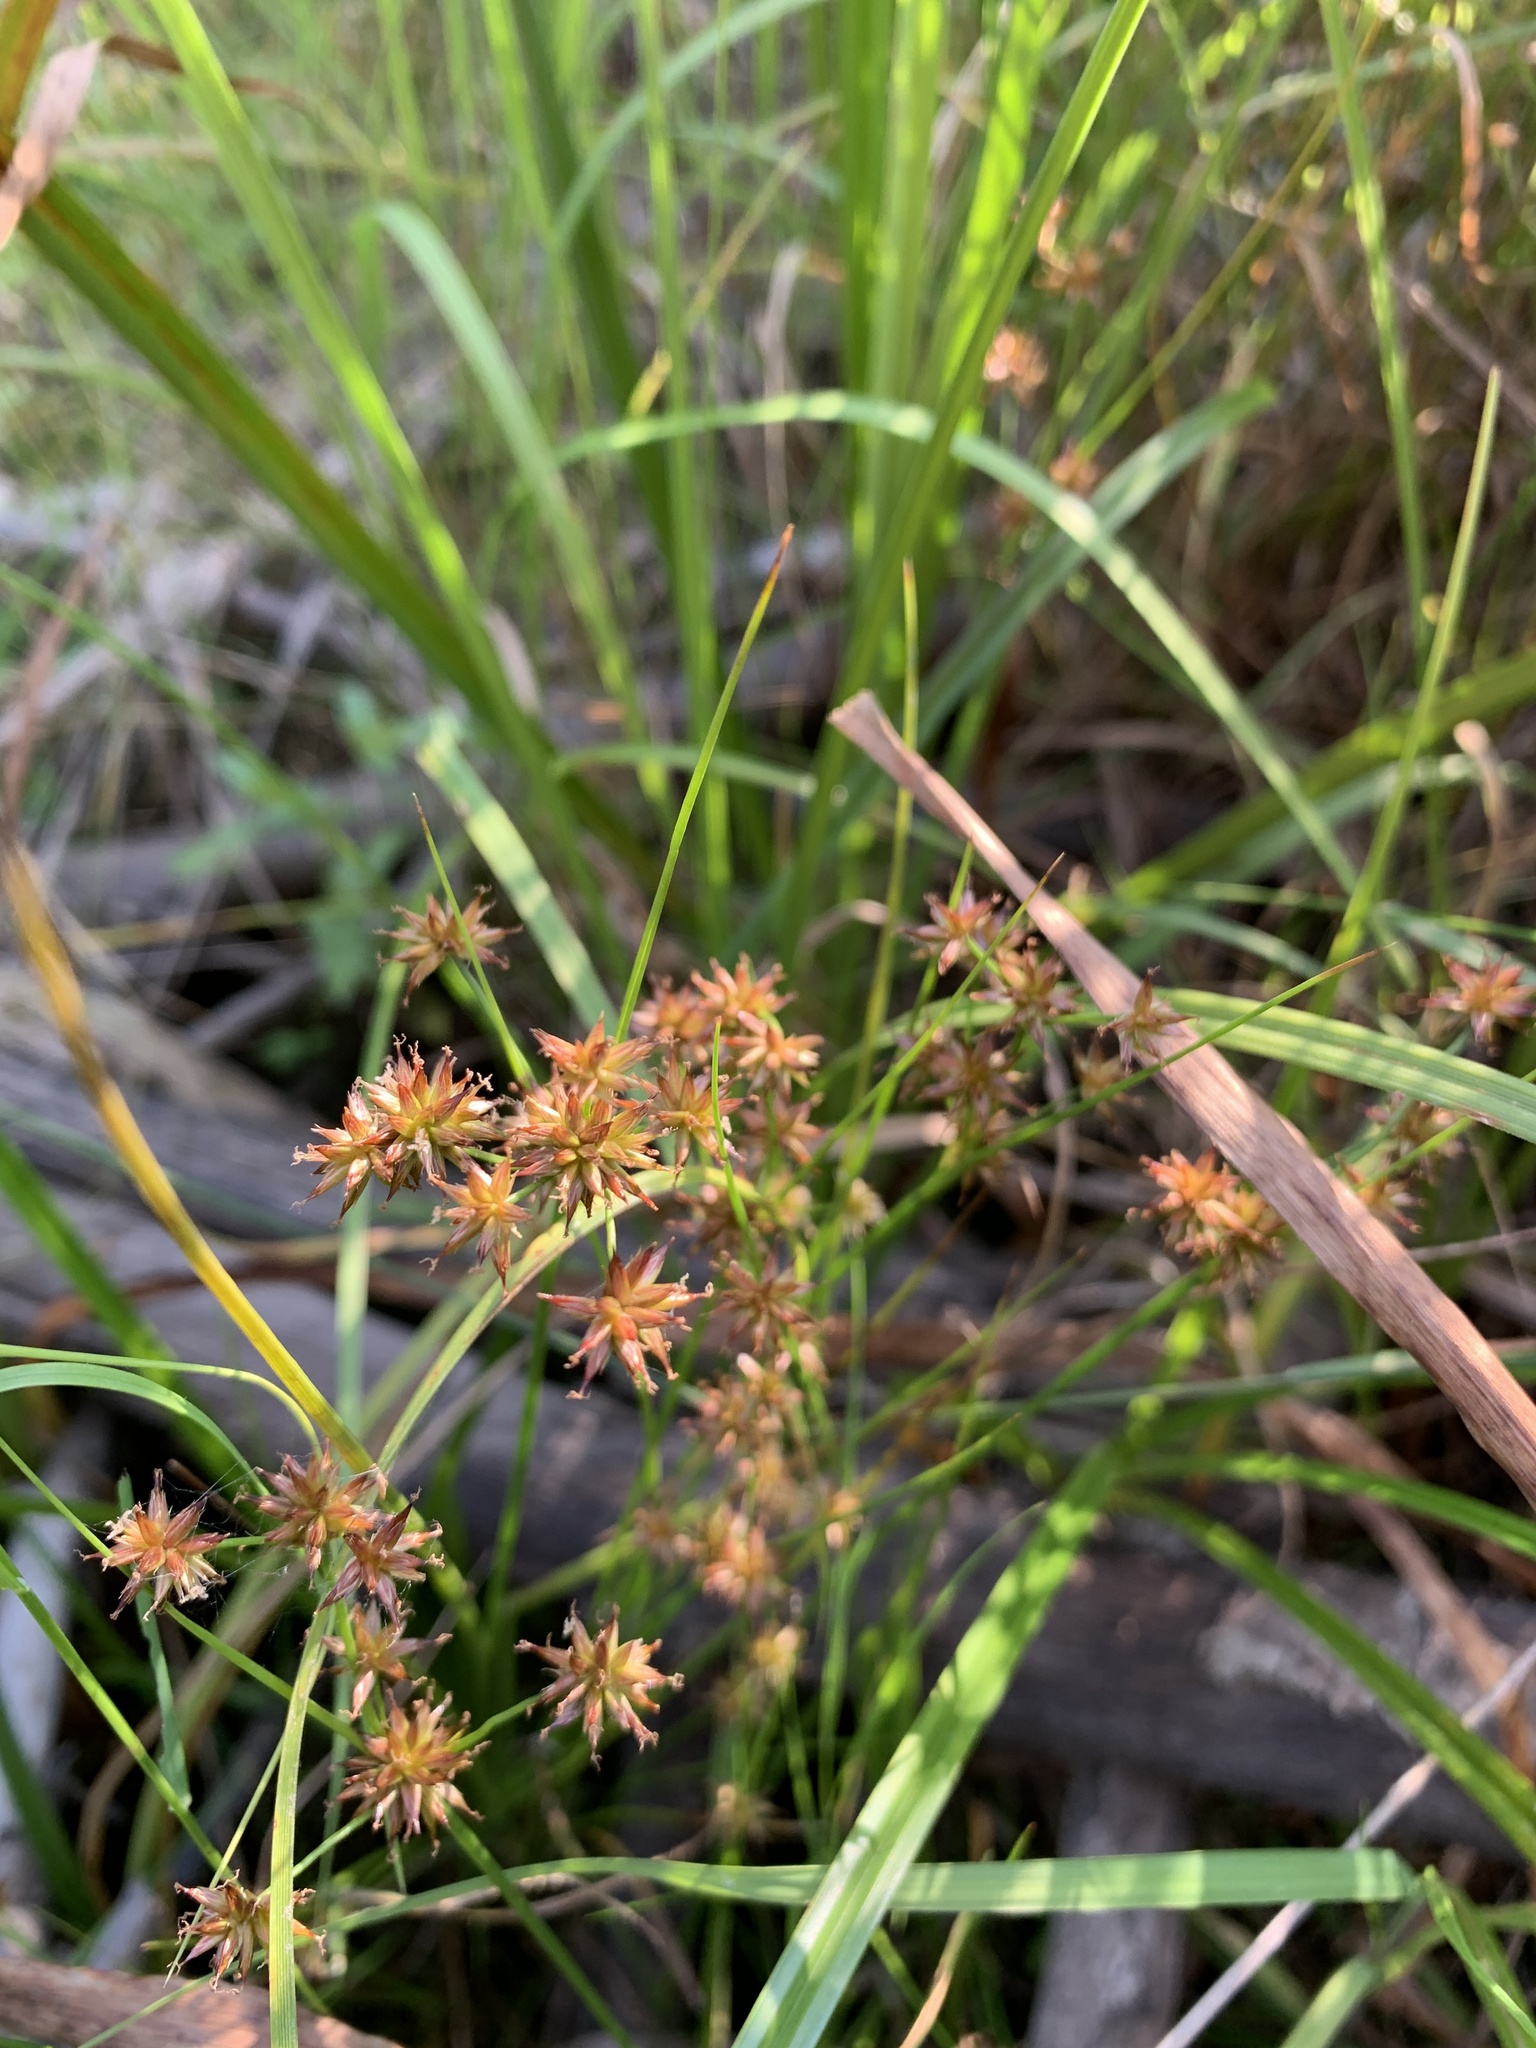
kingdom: Plantae
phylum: Tracheophyta
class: Liliopsida
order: Poales
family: Juncaceae
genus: Juncus
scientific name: Juncus nodosus
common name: Knotted rush
